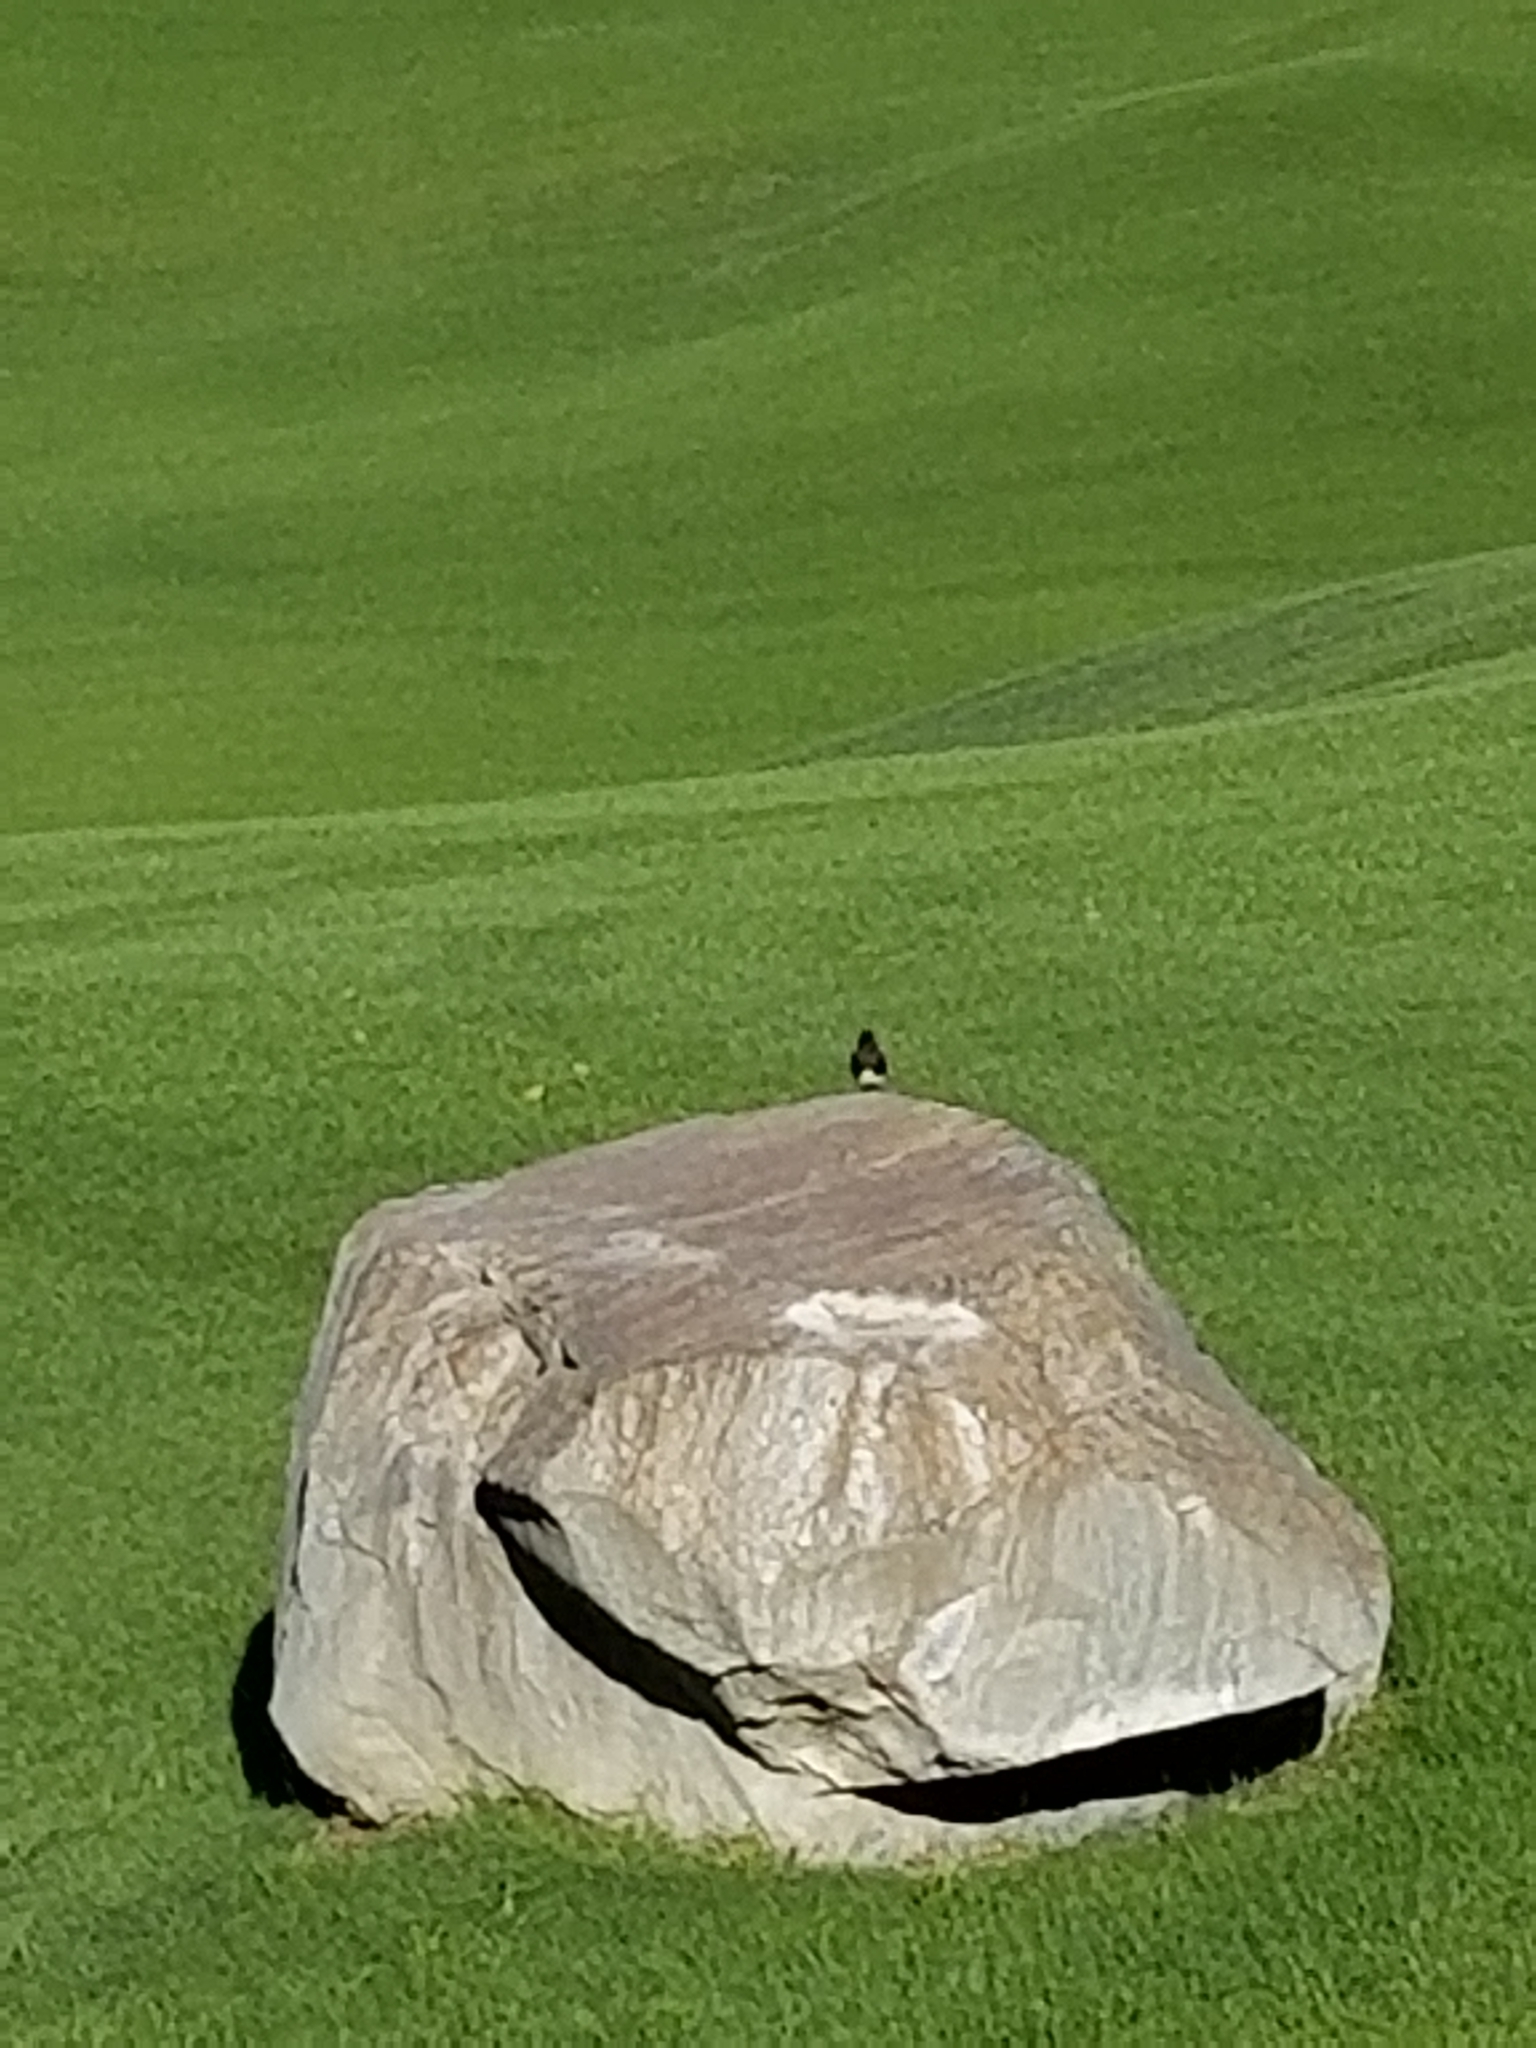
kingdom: Animalia
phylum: Chordata
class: Aves
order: Passeriformes
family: Tyrannidae
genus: Sayornis
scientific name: Sayornis nigricans
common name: Black phoebe
